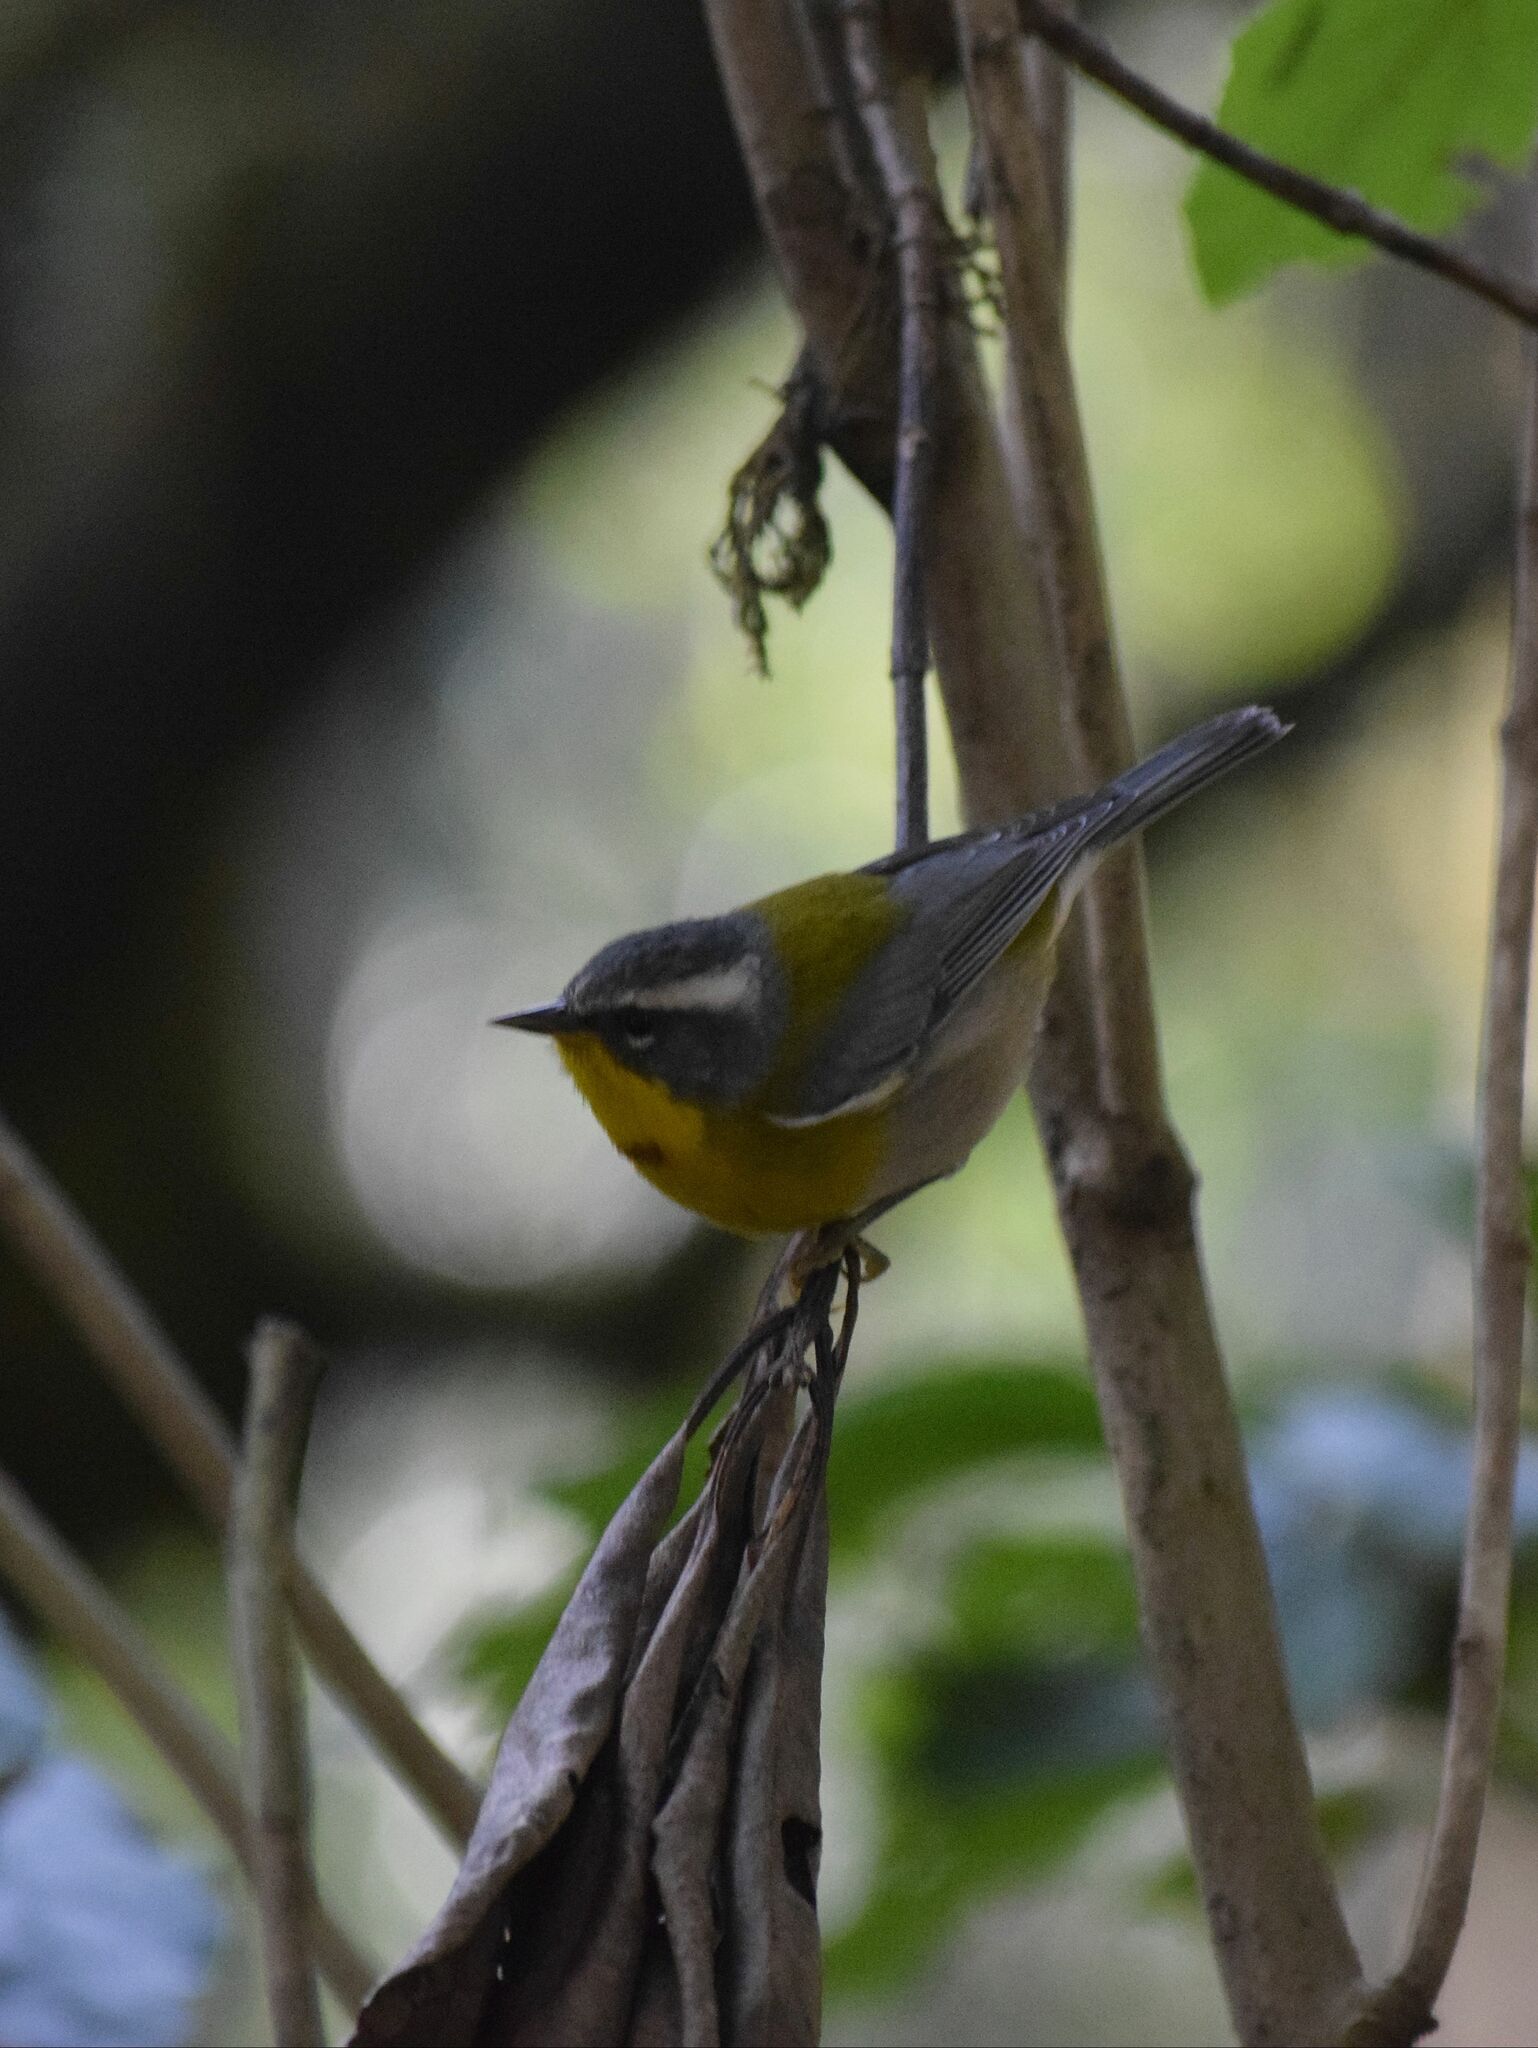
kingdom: Animalia
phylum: Chordata
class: Aves
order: Passeriformes
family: Parulidae
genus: Oreothlypis
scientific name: Oreothlypis superciliosa
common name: Crescent-chested warbler
